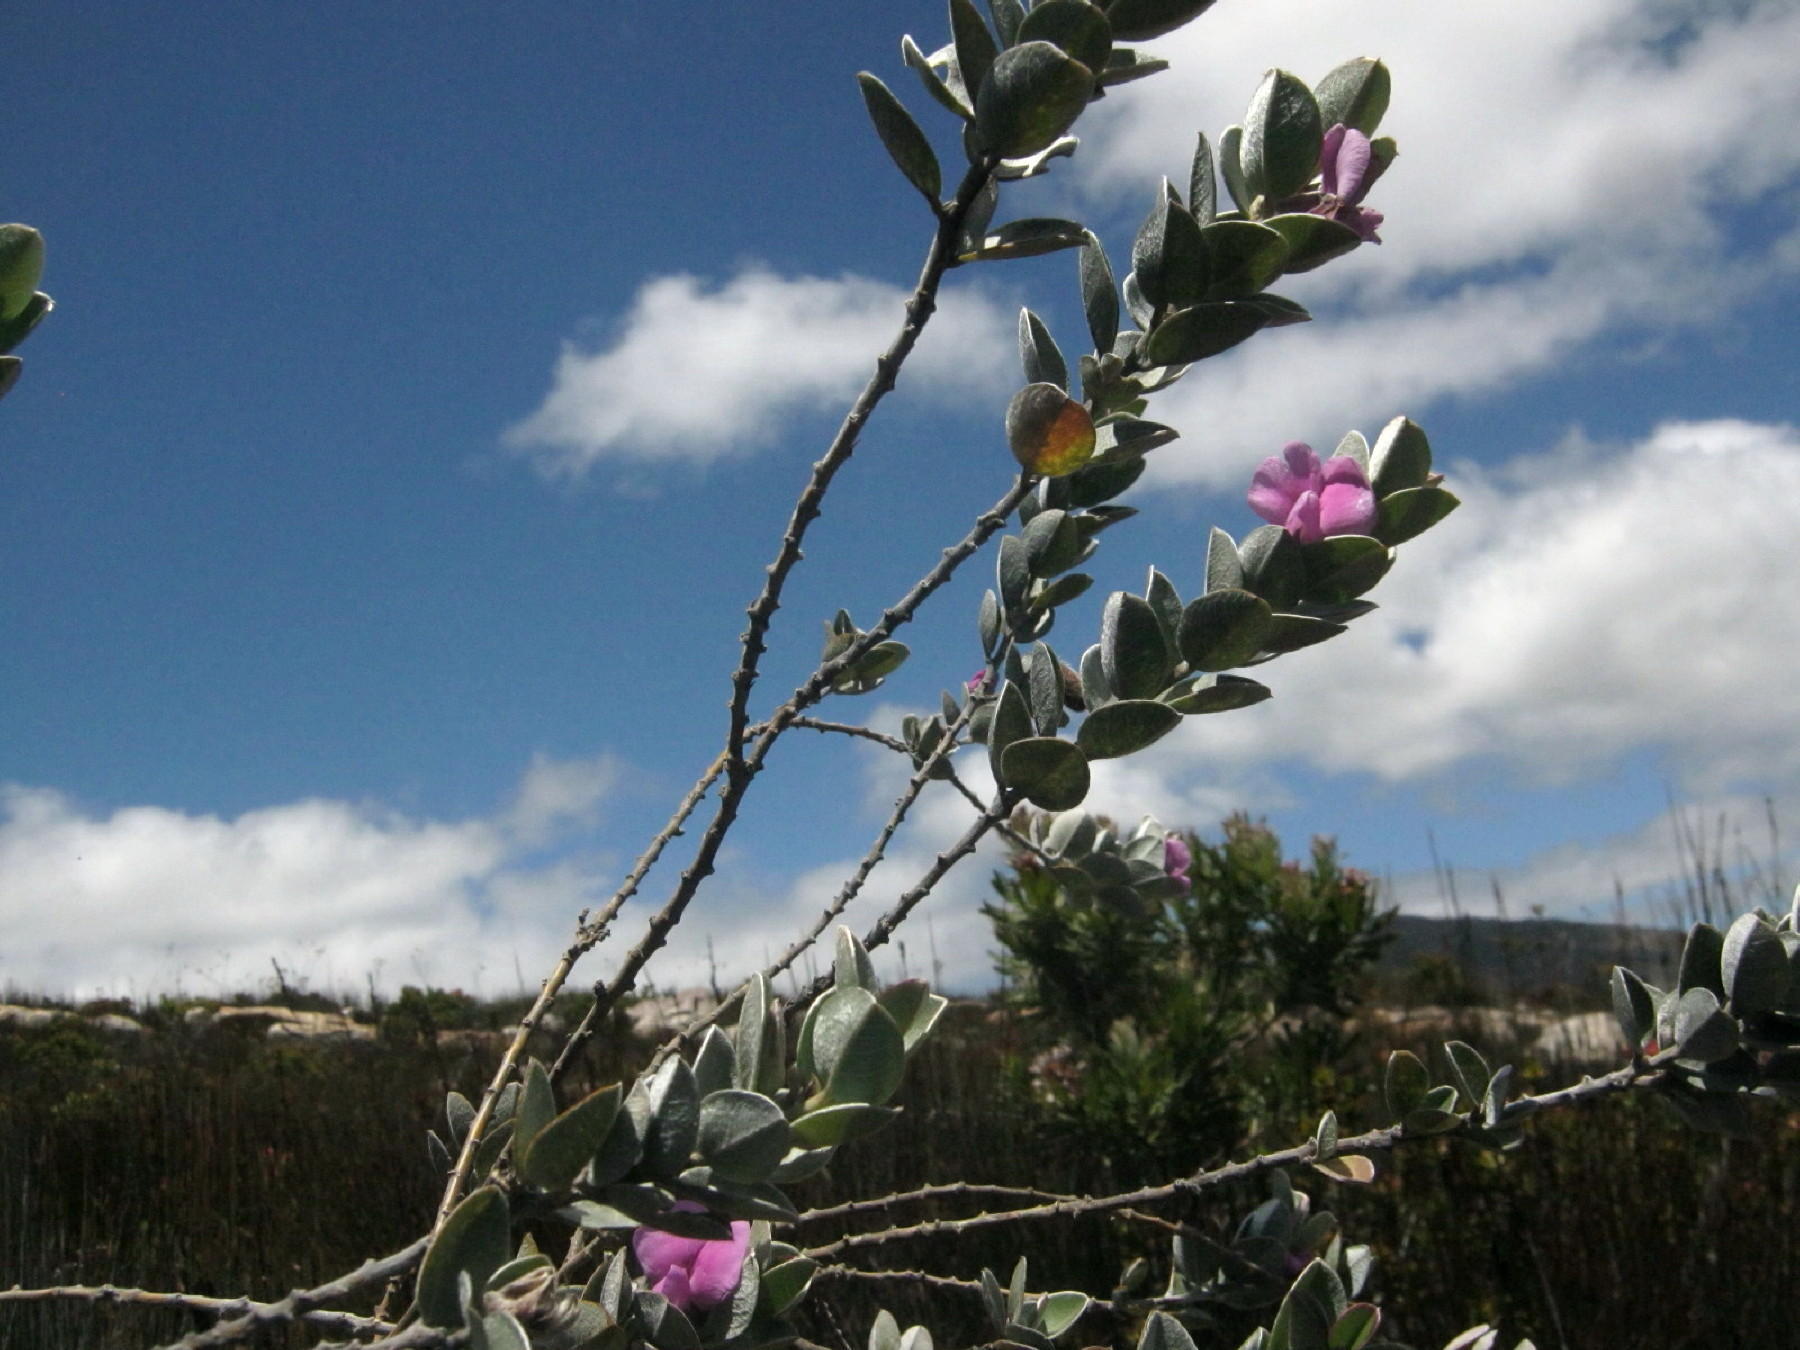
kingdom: Plantae
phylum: Tracheophyta
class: Magnoliopsida
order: Fabales
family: Fabaceae
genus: Podalyria
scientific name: Podalyria hirsuta
